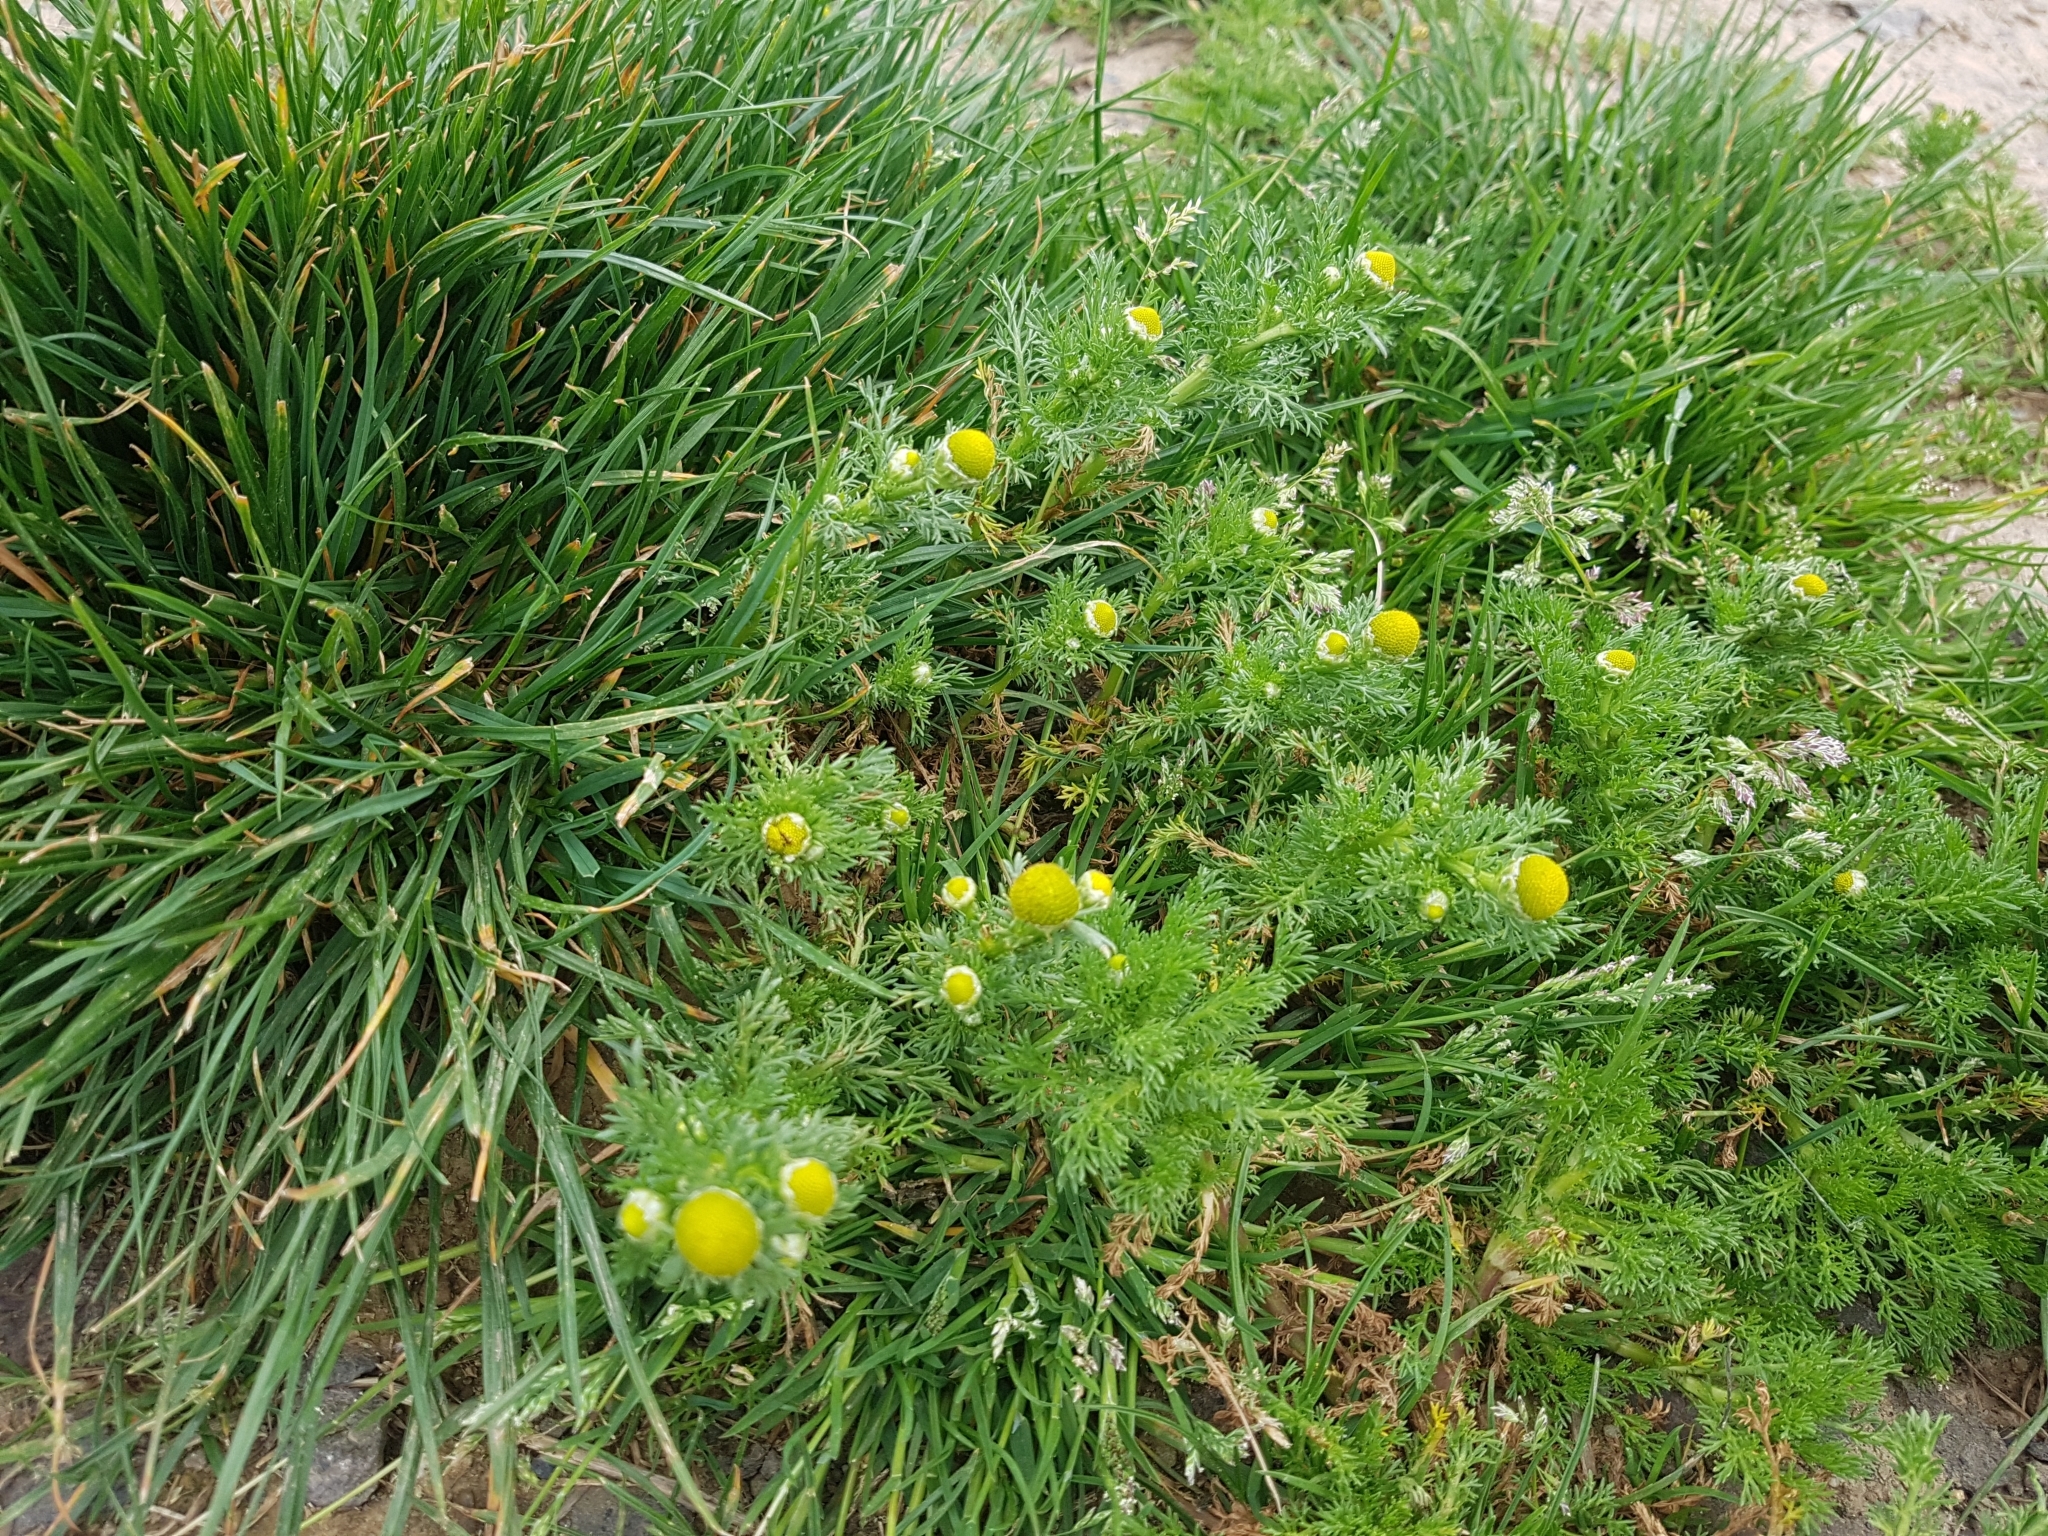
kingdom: Plantae
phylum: Tracheophyta
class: Magnoliopsida
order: Asterales
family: Asteraceae
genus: Matricaria
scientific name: Matricaria discoidea
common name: Disc mayweed
